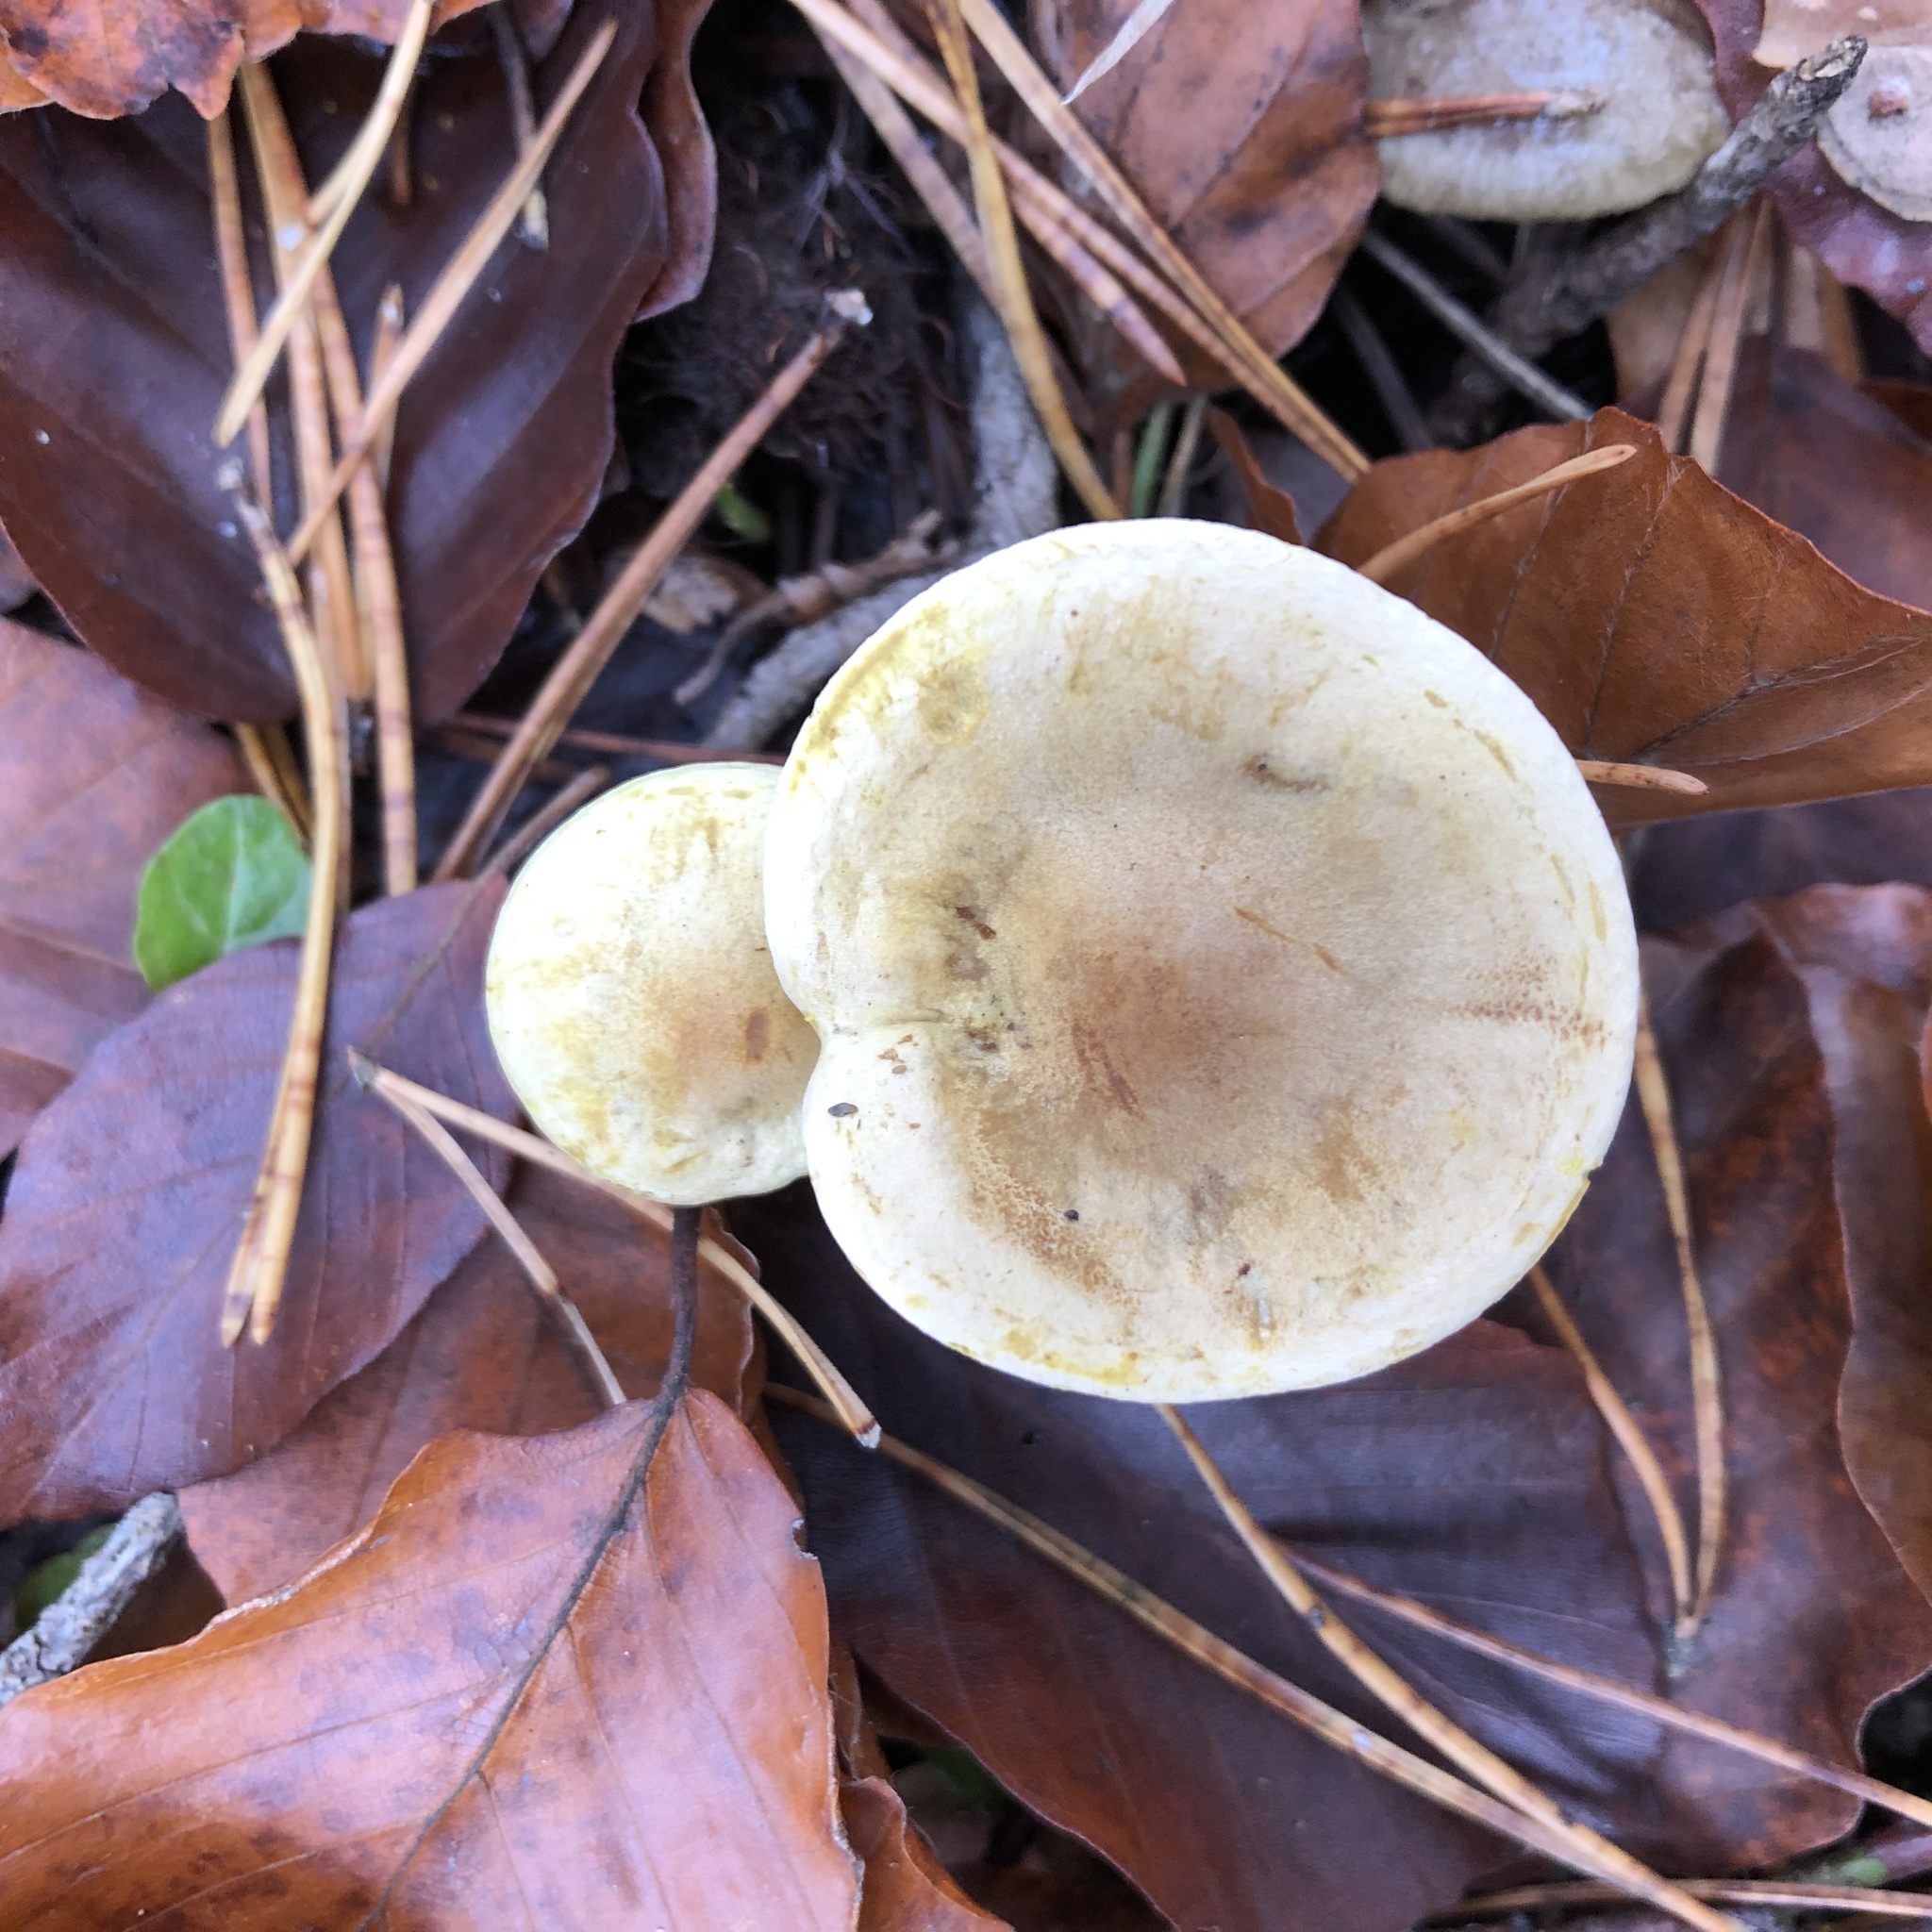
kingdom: Fungi
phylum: Basidiomycota
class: Agaricomycetes
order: Agaricales
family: Tricholomataceae
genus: Tricholoma
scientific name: Tricholoma sulphureum
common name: Stinky knight
